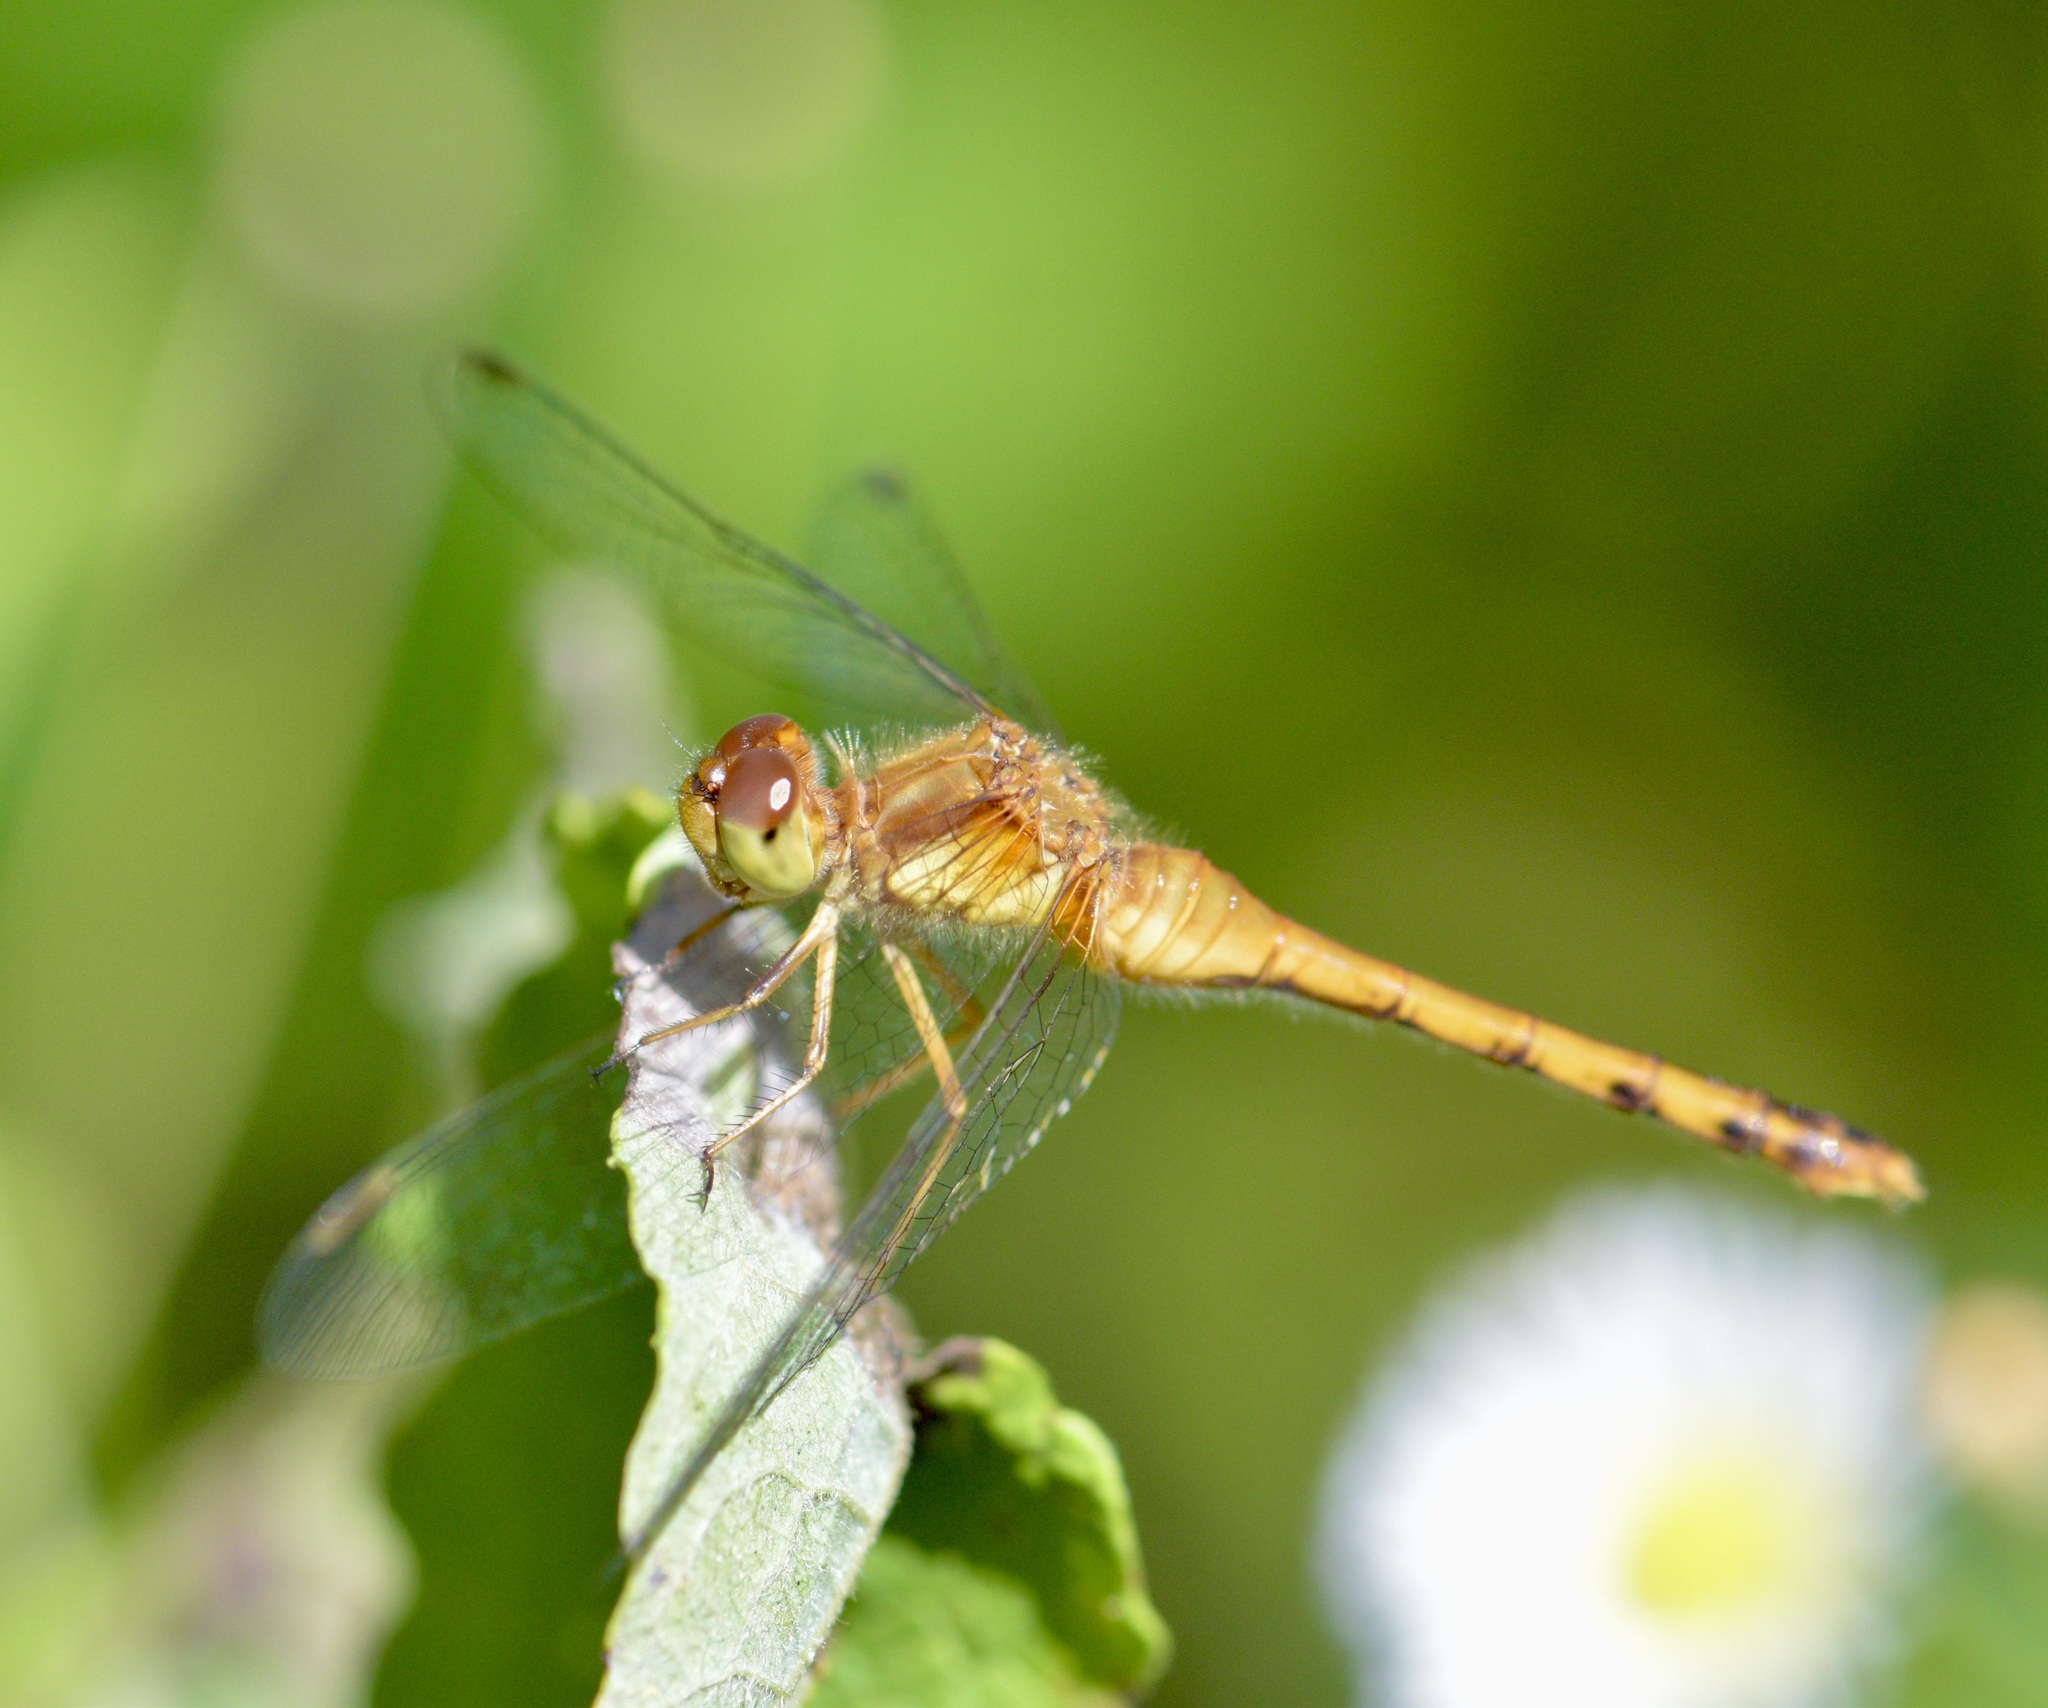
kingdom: Animalia
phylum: Arthropoda
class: Insecta
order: Odonata
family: Libellulidae
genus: Sympetrum
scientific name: Sympetrum vicinum
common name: Autumn meadowhawk
